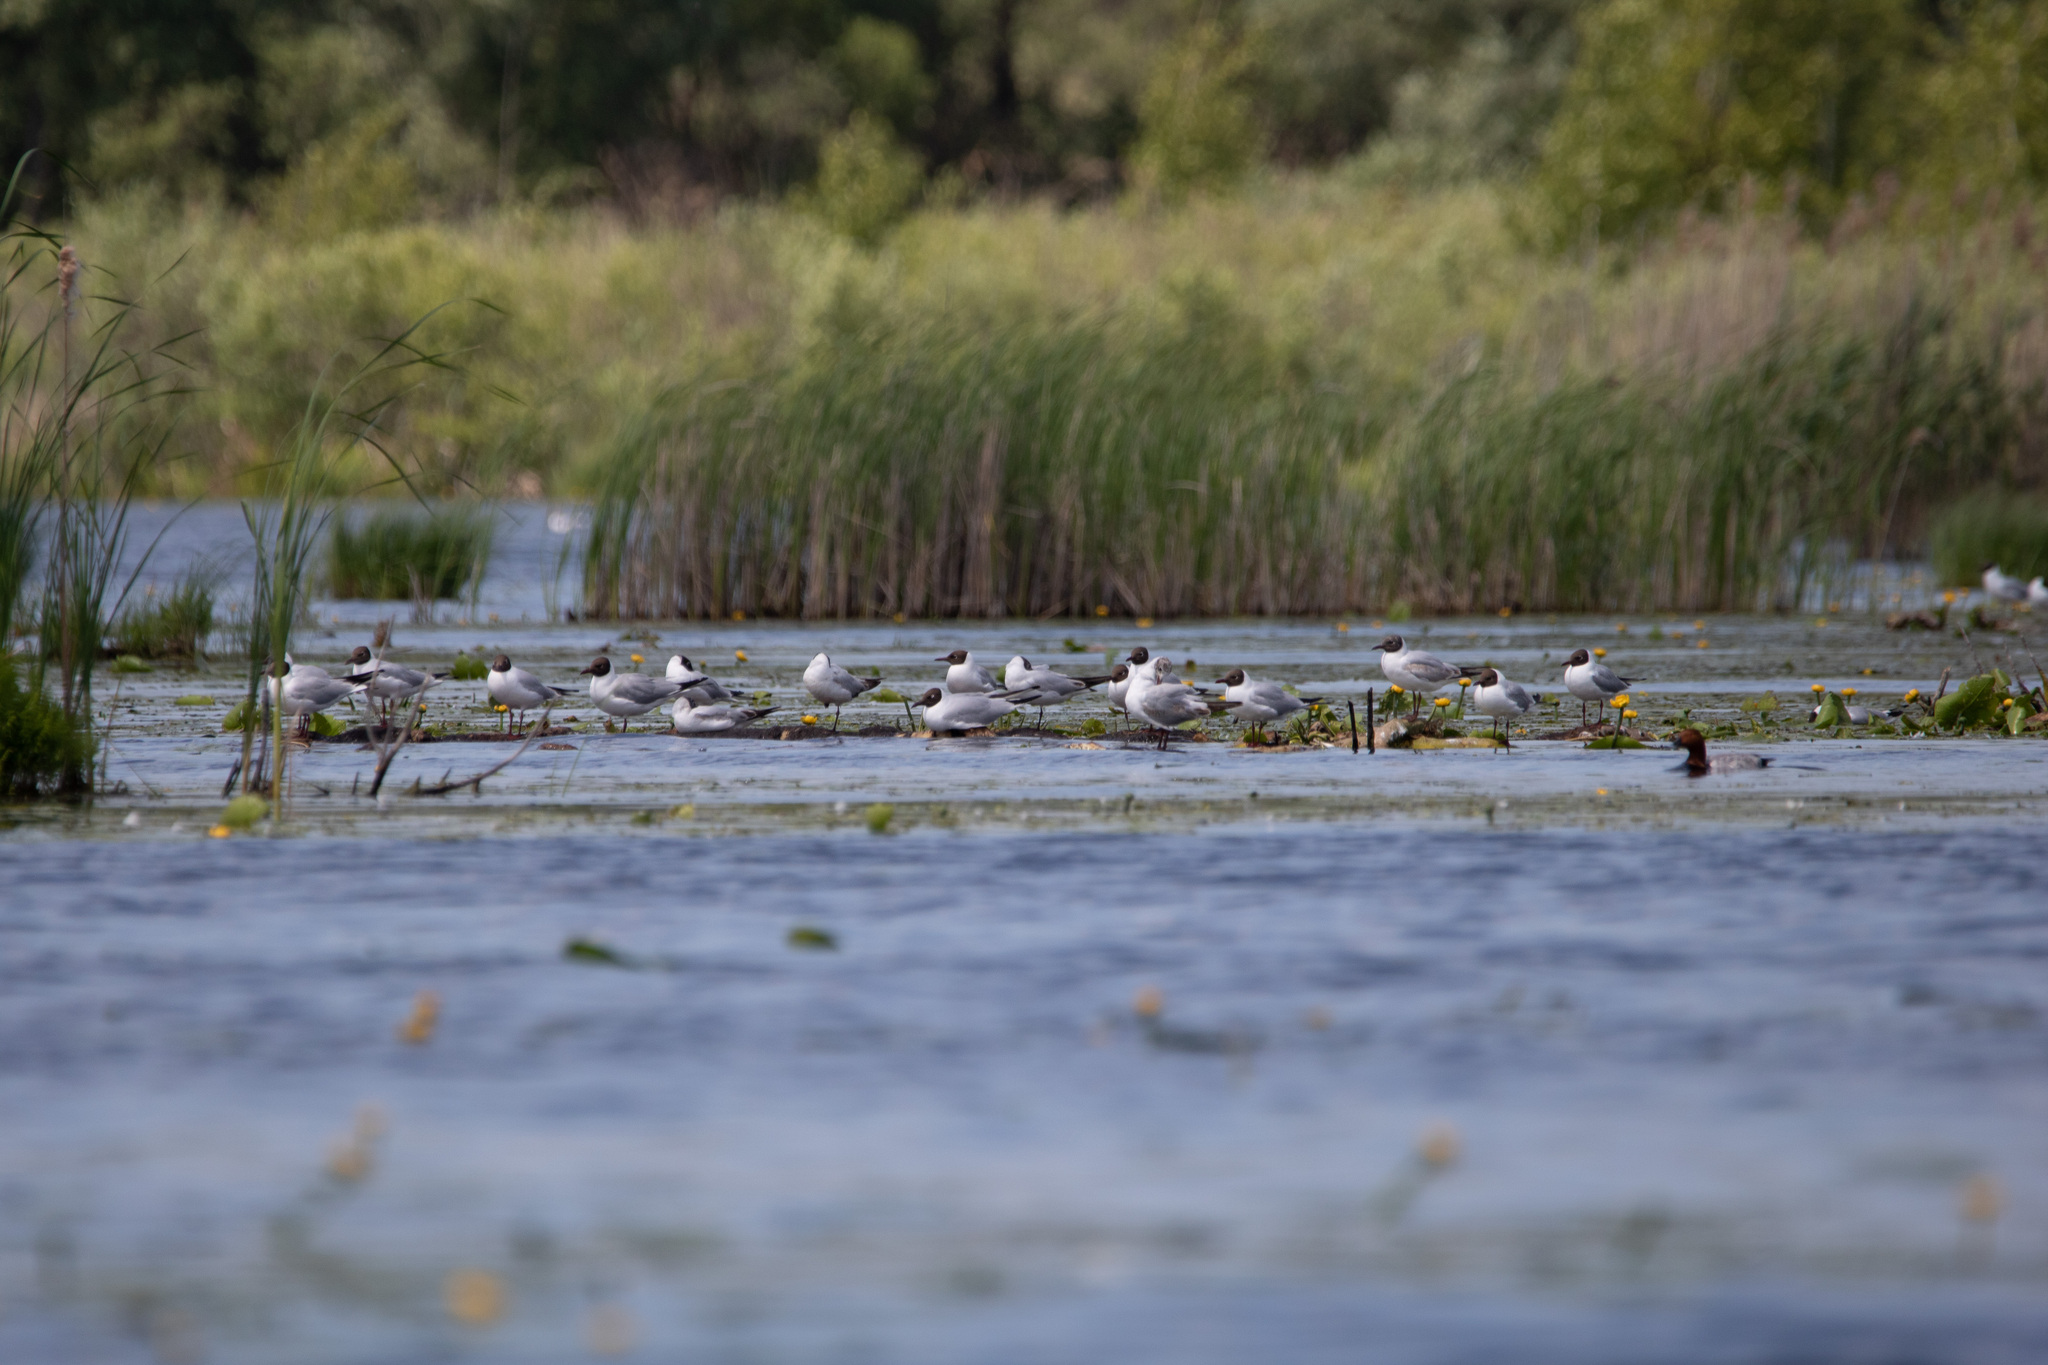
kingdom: Animalia
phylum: Chordata
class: Aves
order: Charadriiformes
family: Laridae
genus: Chroicocephalus
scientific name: Chroicocephalus ridibundus
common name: Black-headed gull
